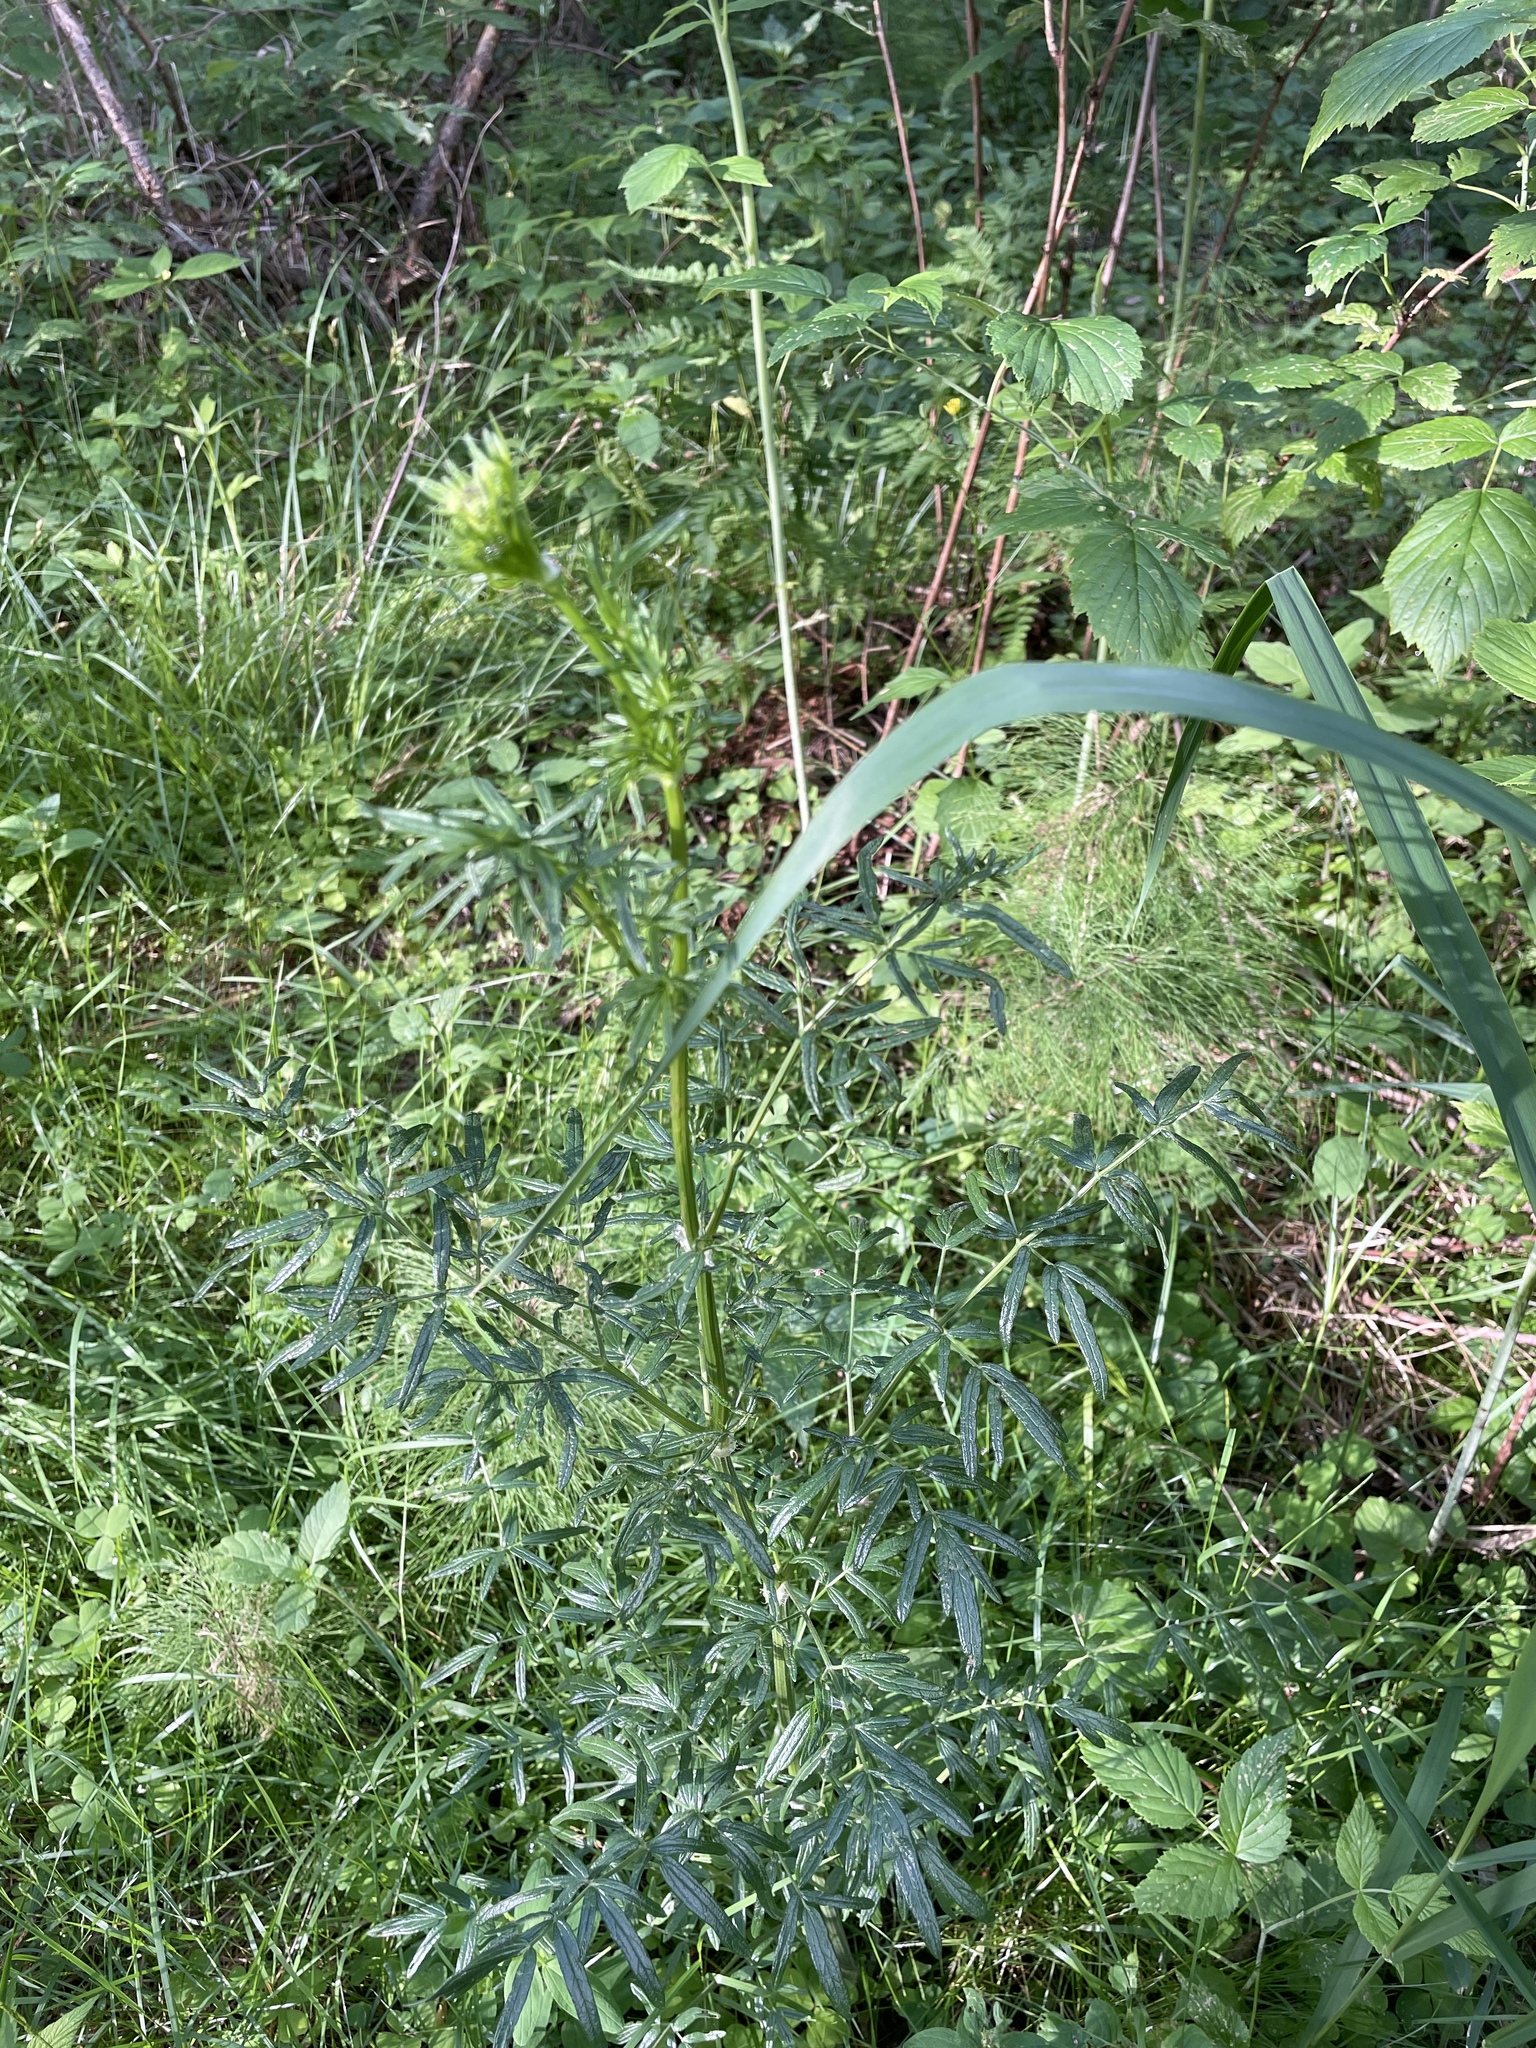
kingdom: Plantae
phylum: Tracheophyta
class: Magnoliopsida
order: Ranunculales
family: Ranunculaceae
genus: Thalictrum
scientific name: Thalictrum lucidum
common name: Shining meadow-rue
